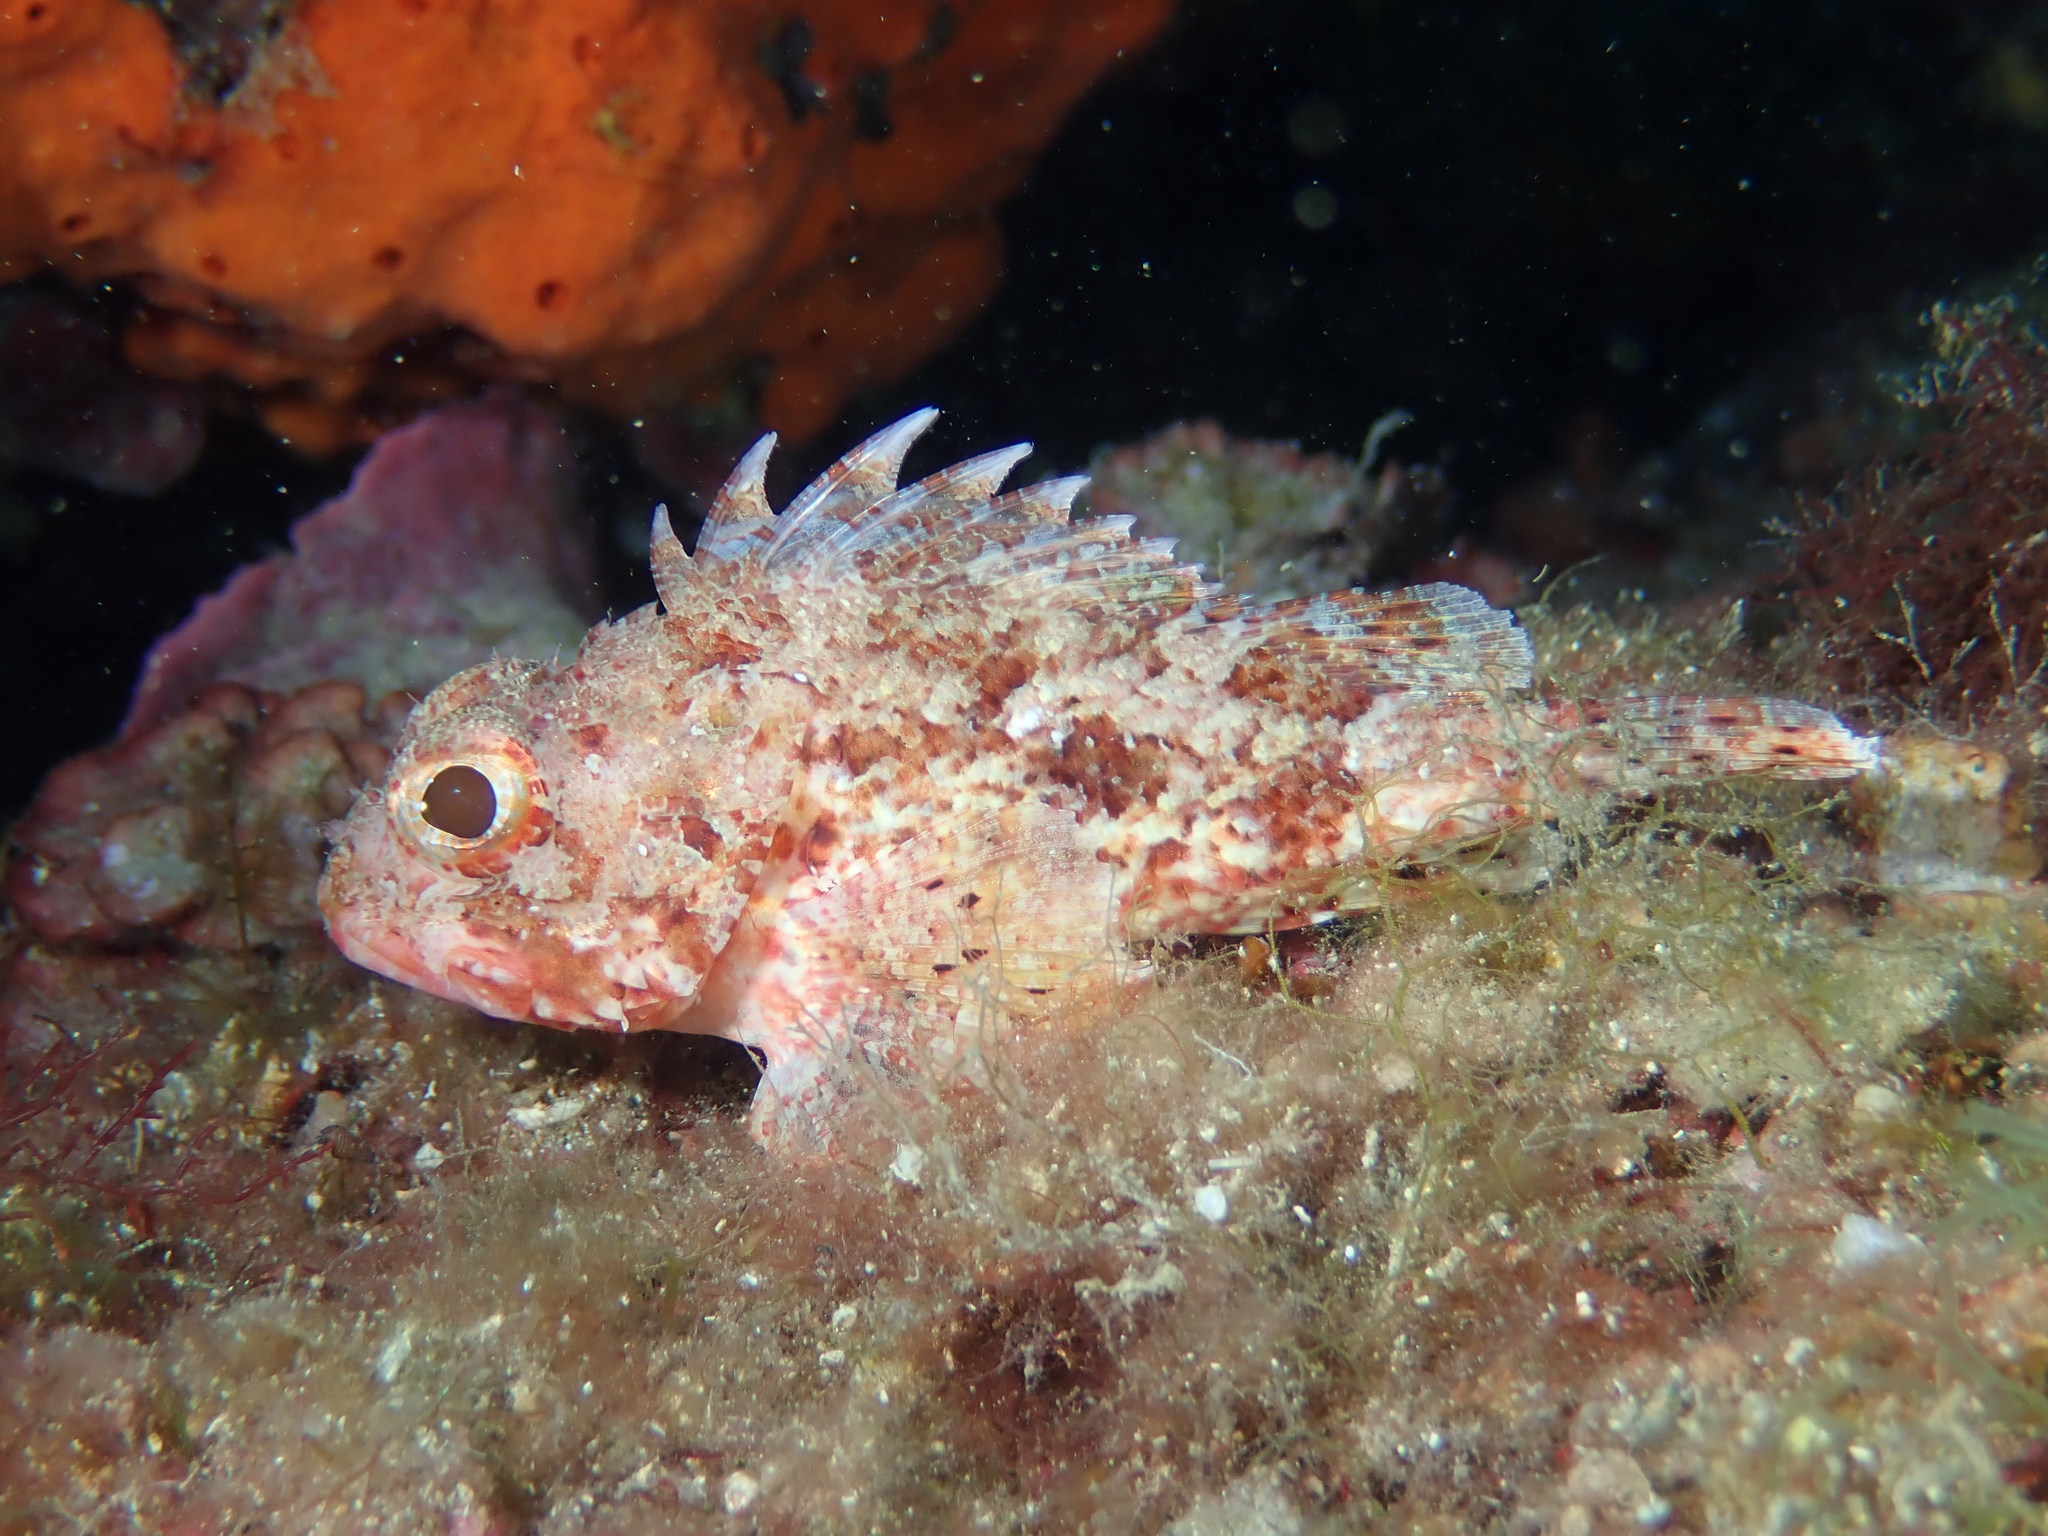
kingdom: Animalia
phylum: Chordata
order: Scorpaeniformes
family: Scorpaenidae
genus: Scorpaena
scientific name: Scorpaena notata
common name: Small red scorpionfish
